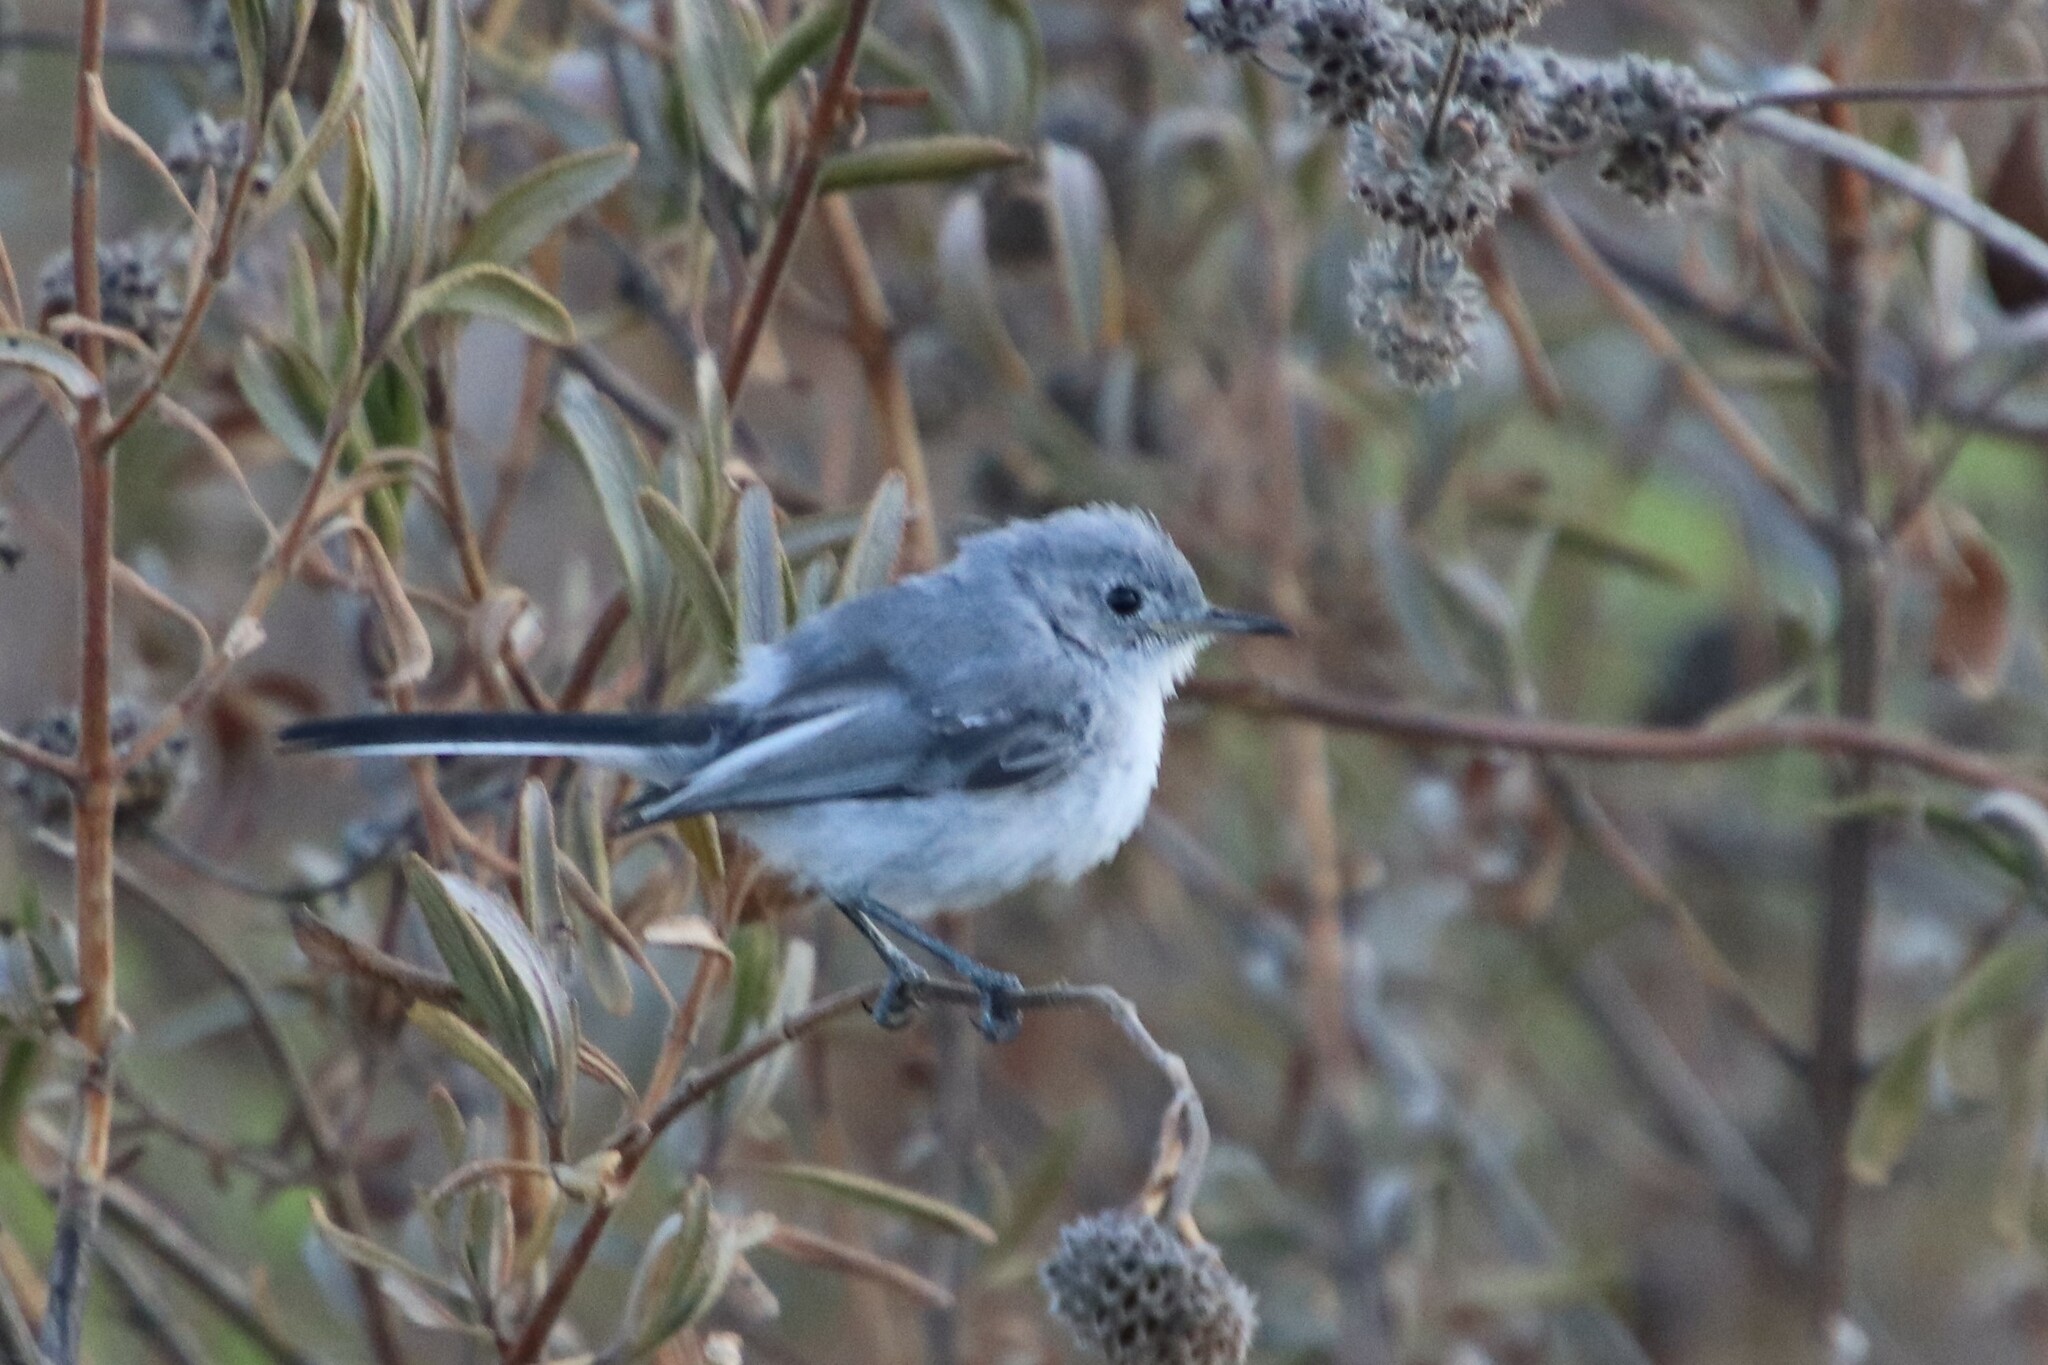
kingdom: Animalia
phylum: Chordata
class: Aves
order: Passeriformes
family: Polioptilidae
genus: Polioptila
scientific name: Polioptila caerulea
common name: Blue-gray gnatcatcher
